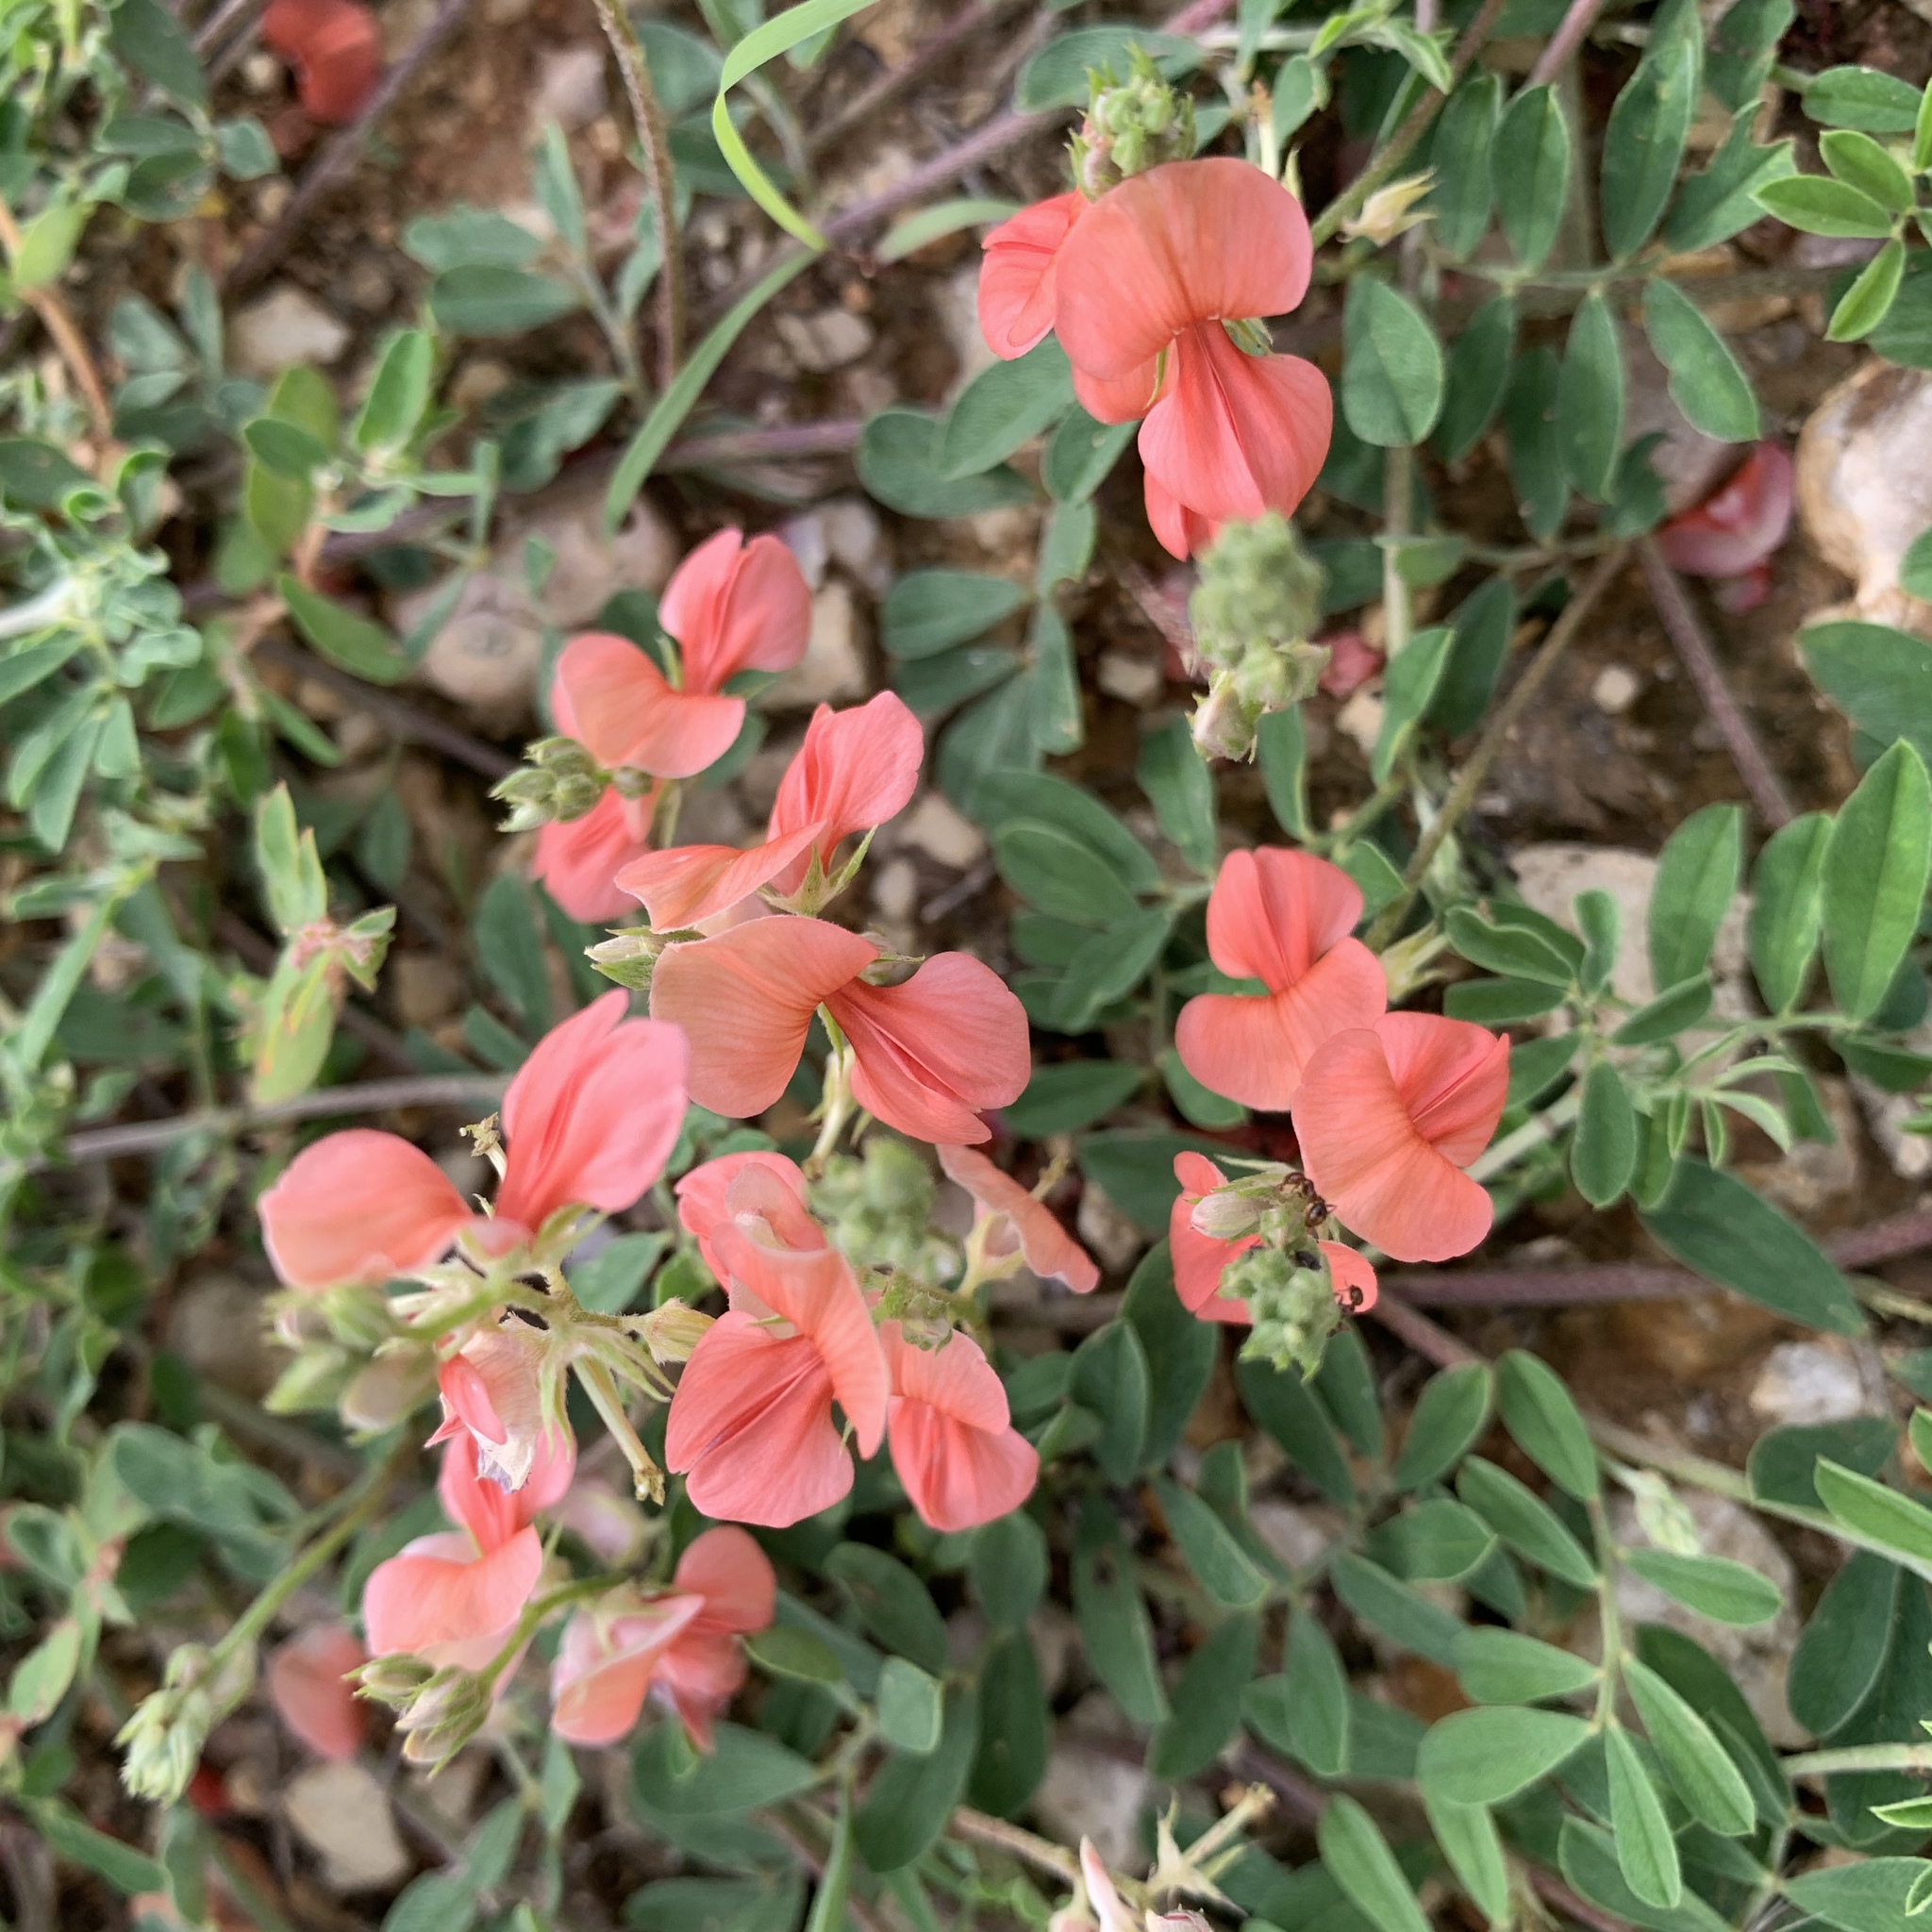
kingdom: Plantae
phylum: Tracheophyta
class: Magnoliopsida
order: Fabales
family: Fabaceae
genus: Indigofera
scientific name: Indigofera miniata
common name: Coast indigo
